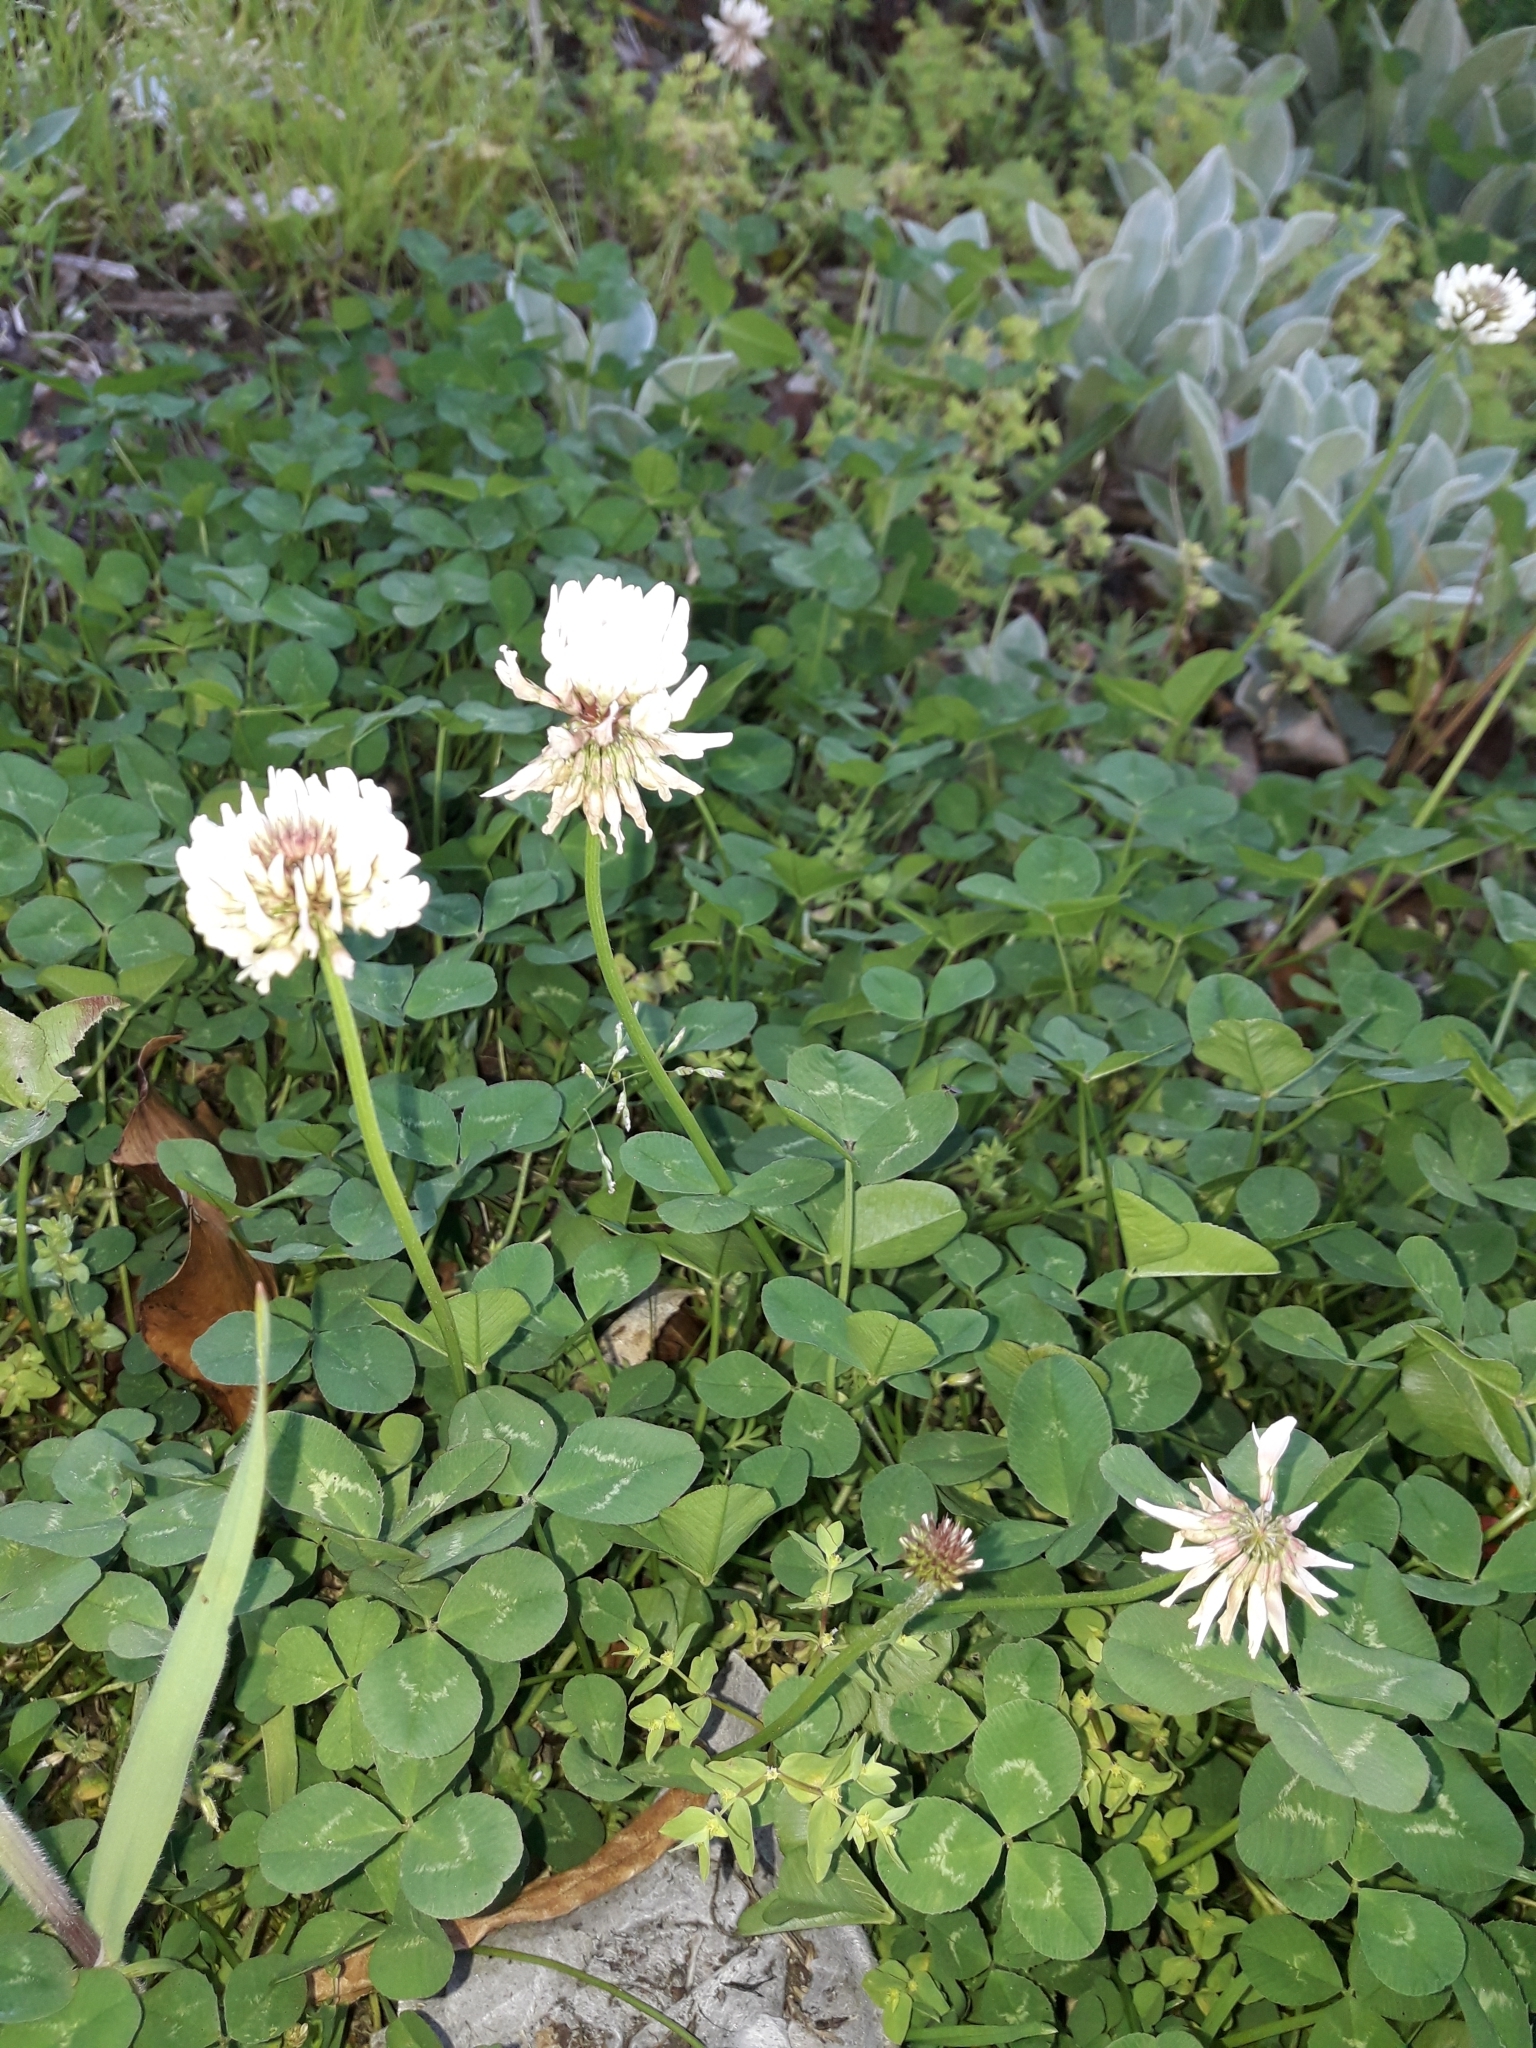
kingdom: Plantae
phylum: Tracheophyta
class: Magnoliopsida
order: Fabales
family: Fabaceae
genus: Trifolium
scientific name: Trifolium repens
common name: White clover
